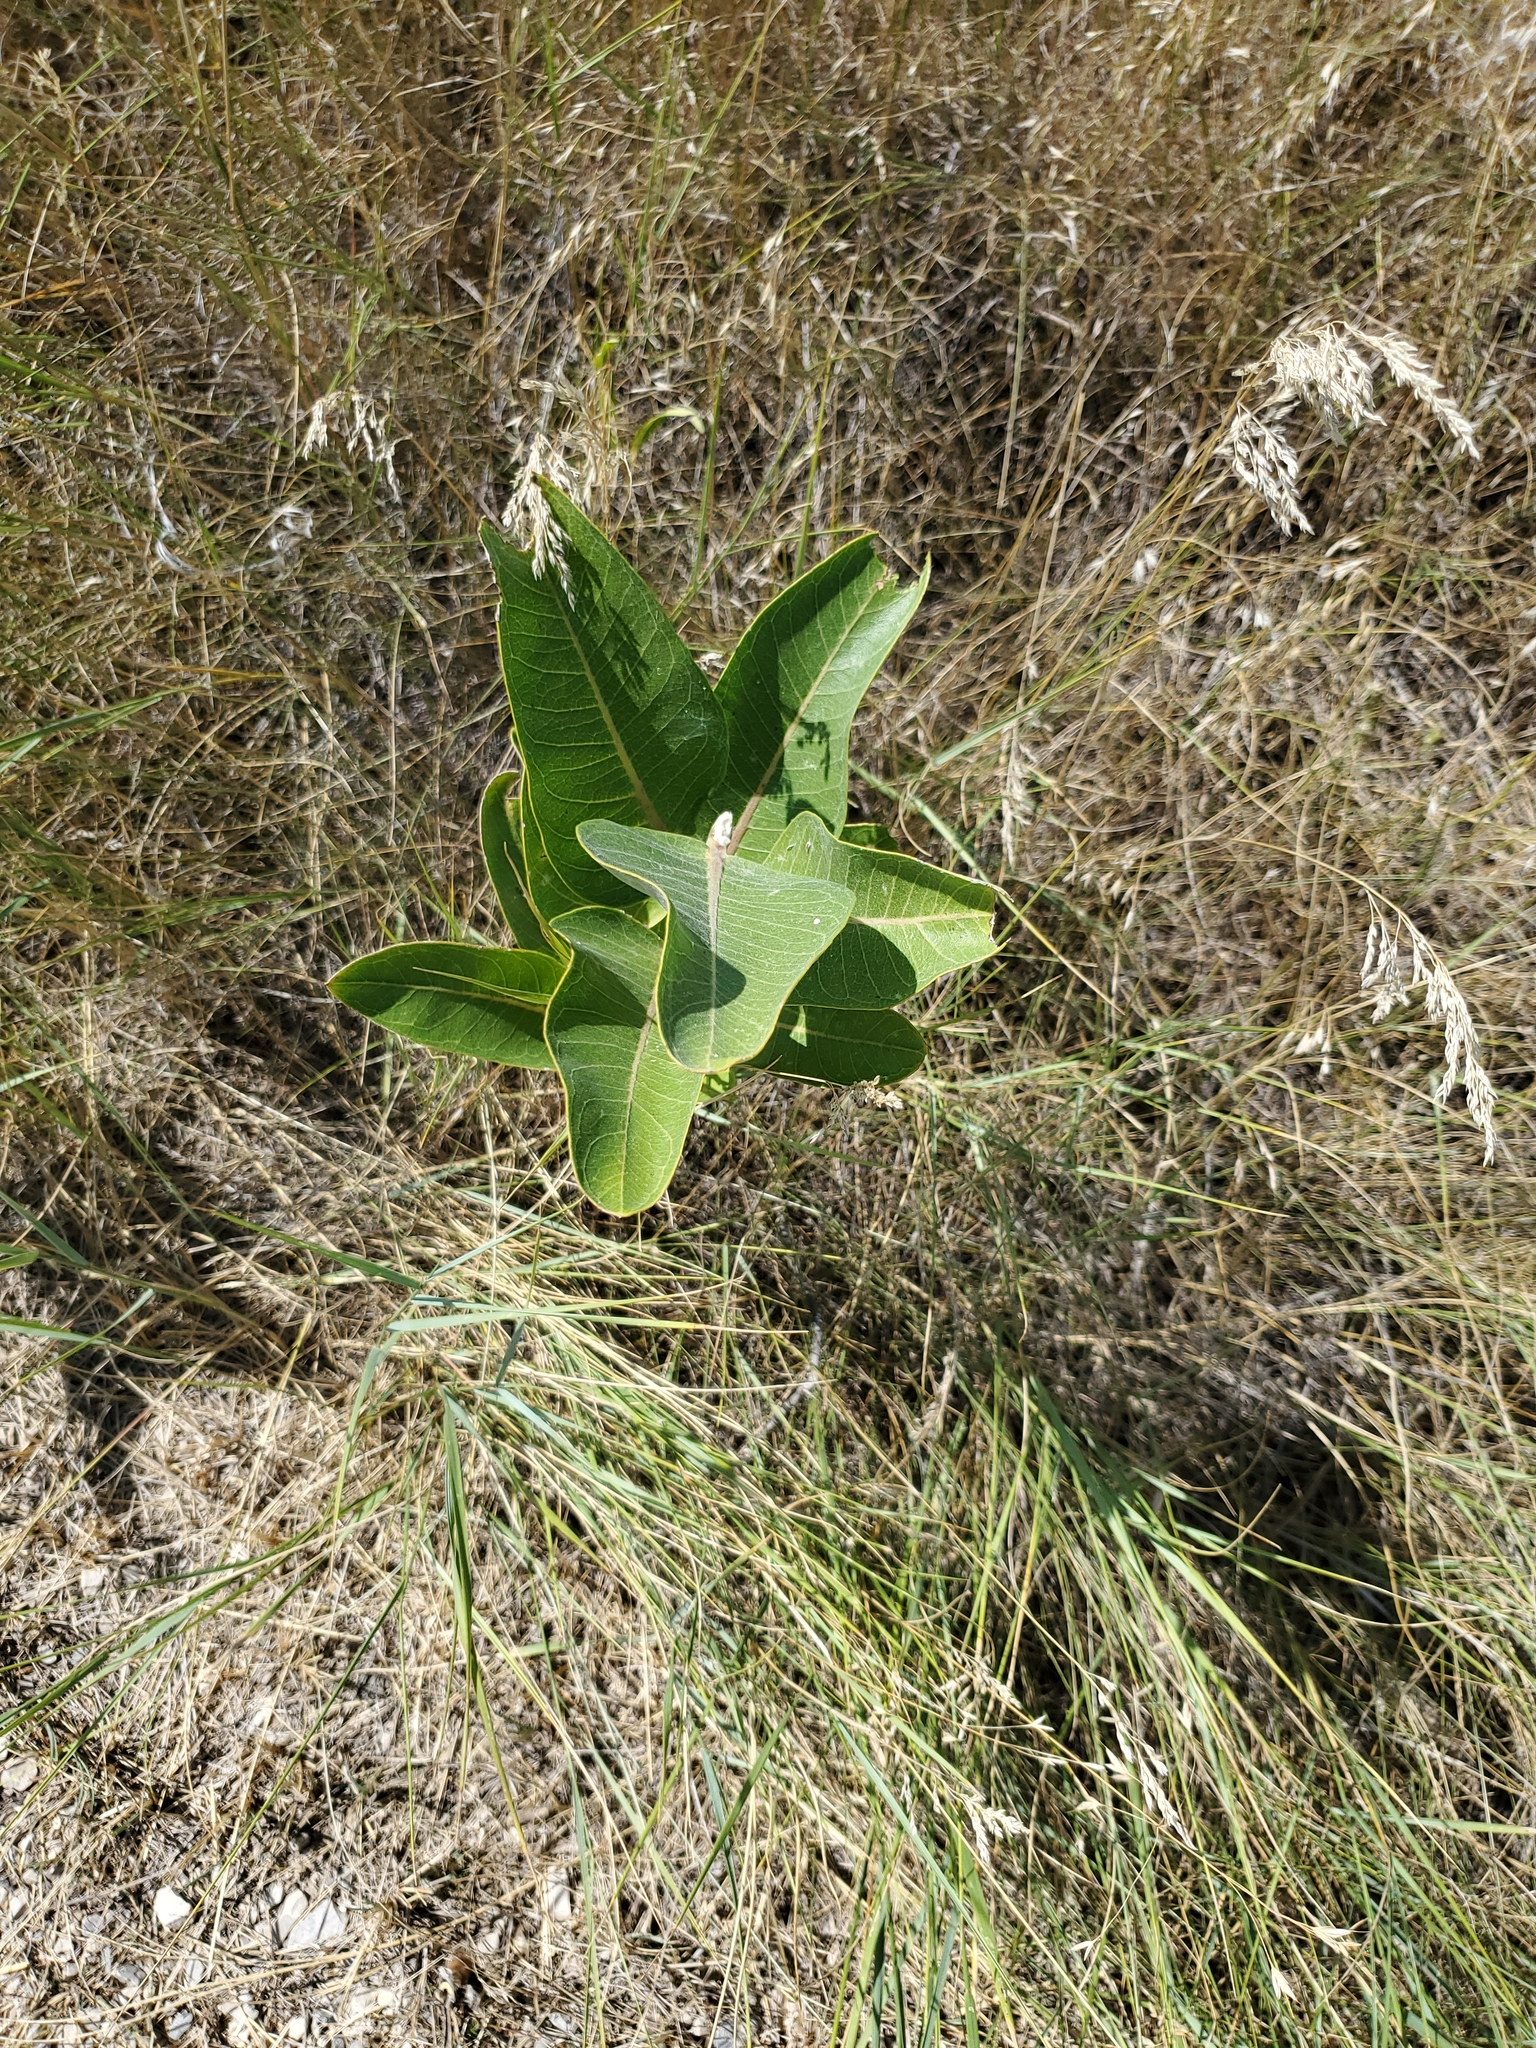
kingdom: Plantae
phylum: Tracheophyta
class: Magnoliopsida
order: Gentianales
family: Apocynaceae
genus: Asclepias
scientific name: Asclepias speciosa
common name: Showy milkweed
